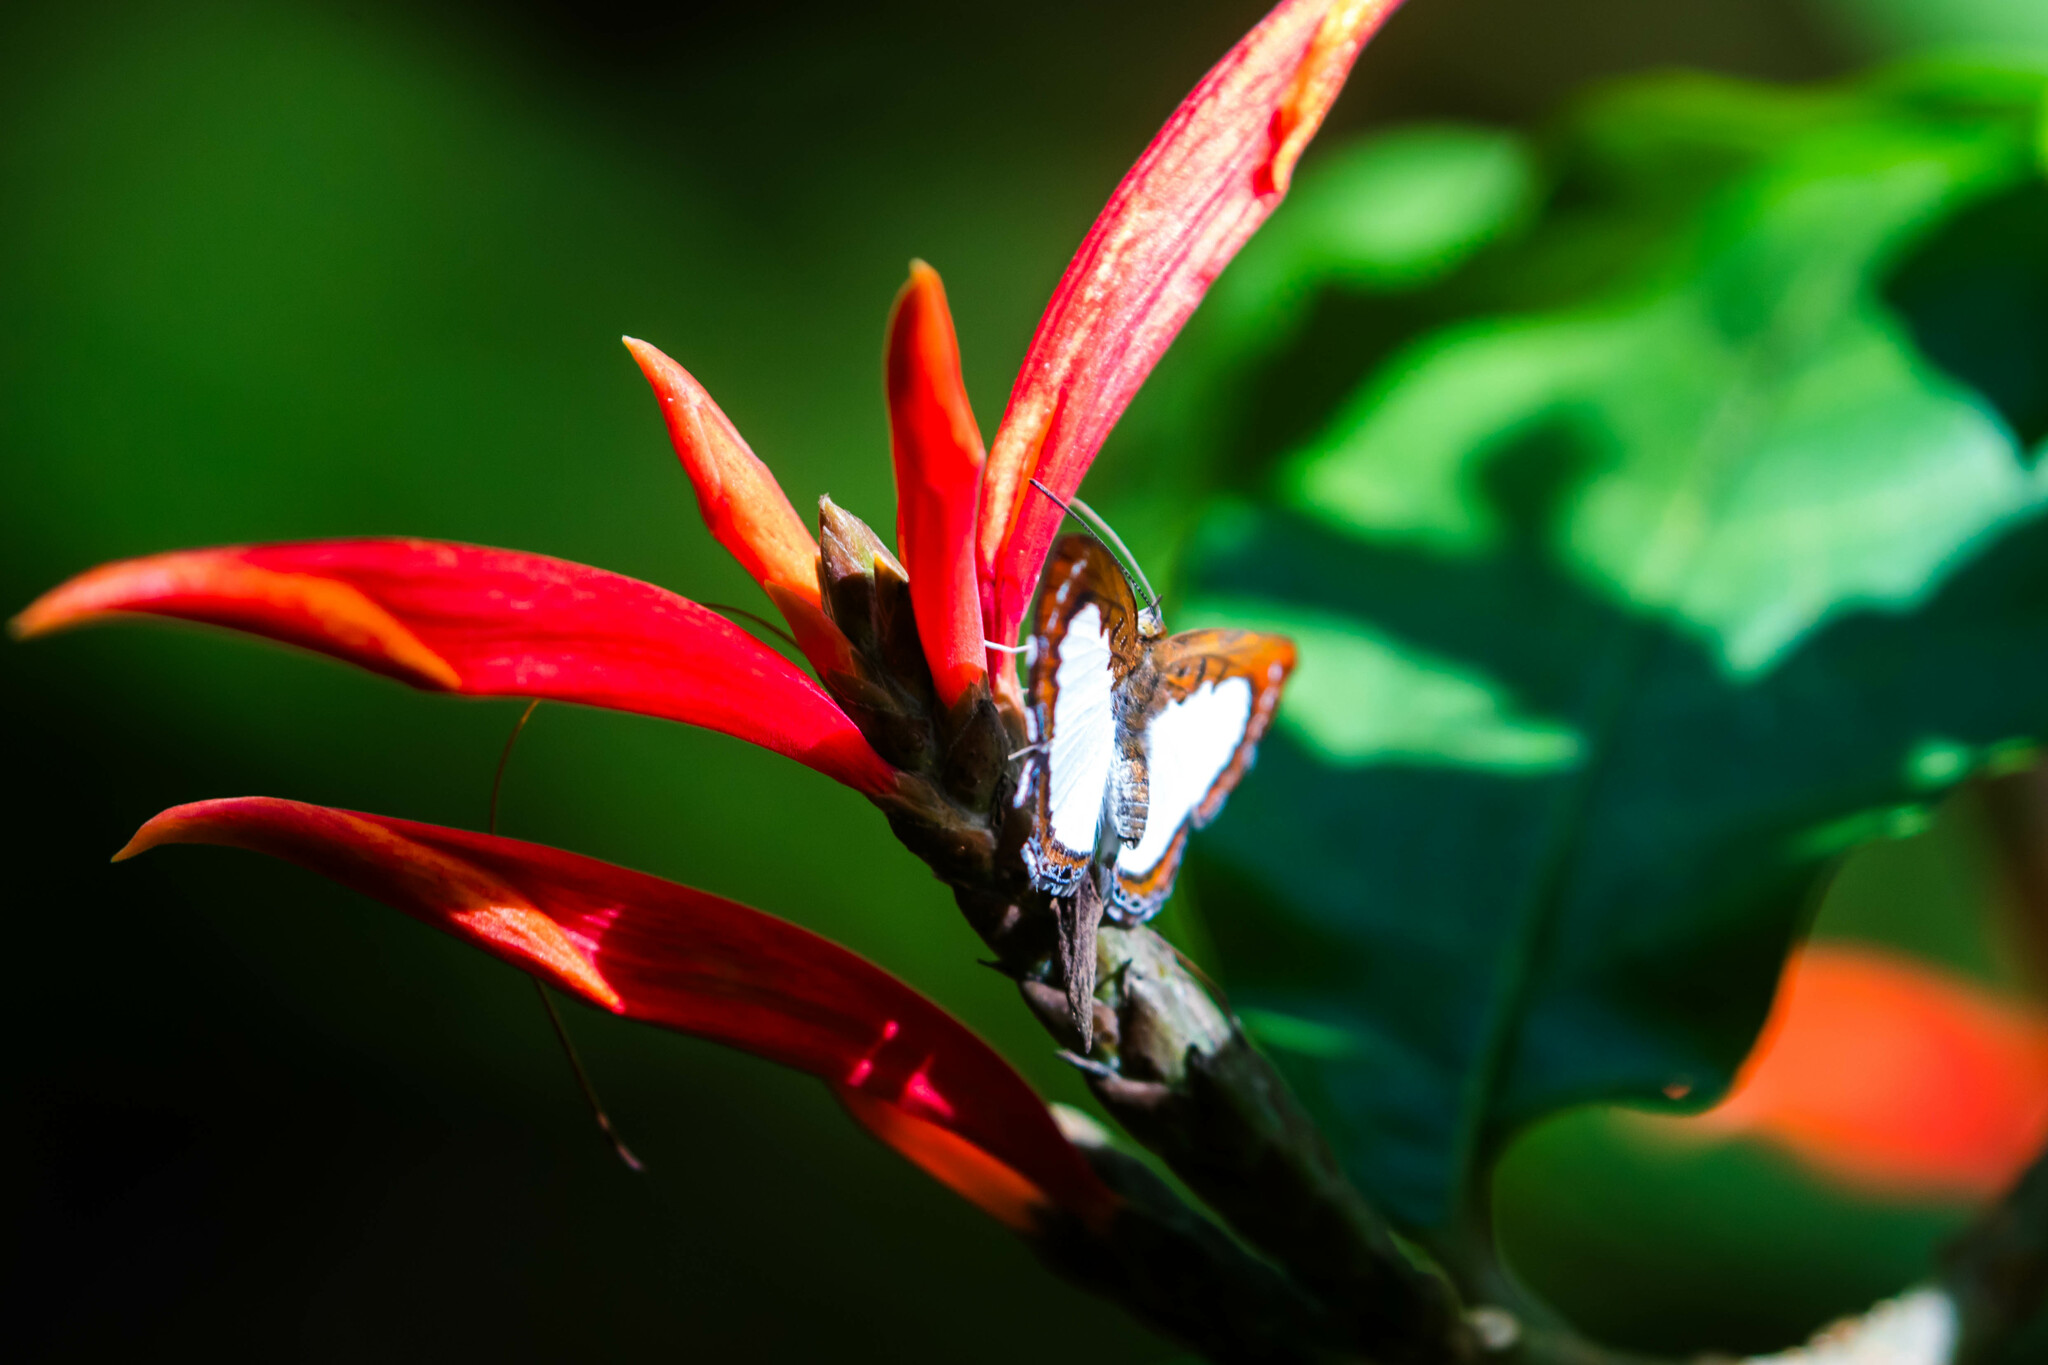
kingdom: Animalia
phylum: Arthropoda
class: Insecta
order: Lepidoptera
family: Riodinidae
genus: Nymula
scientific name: Nymula calyce
